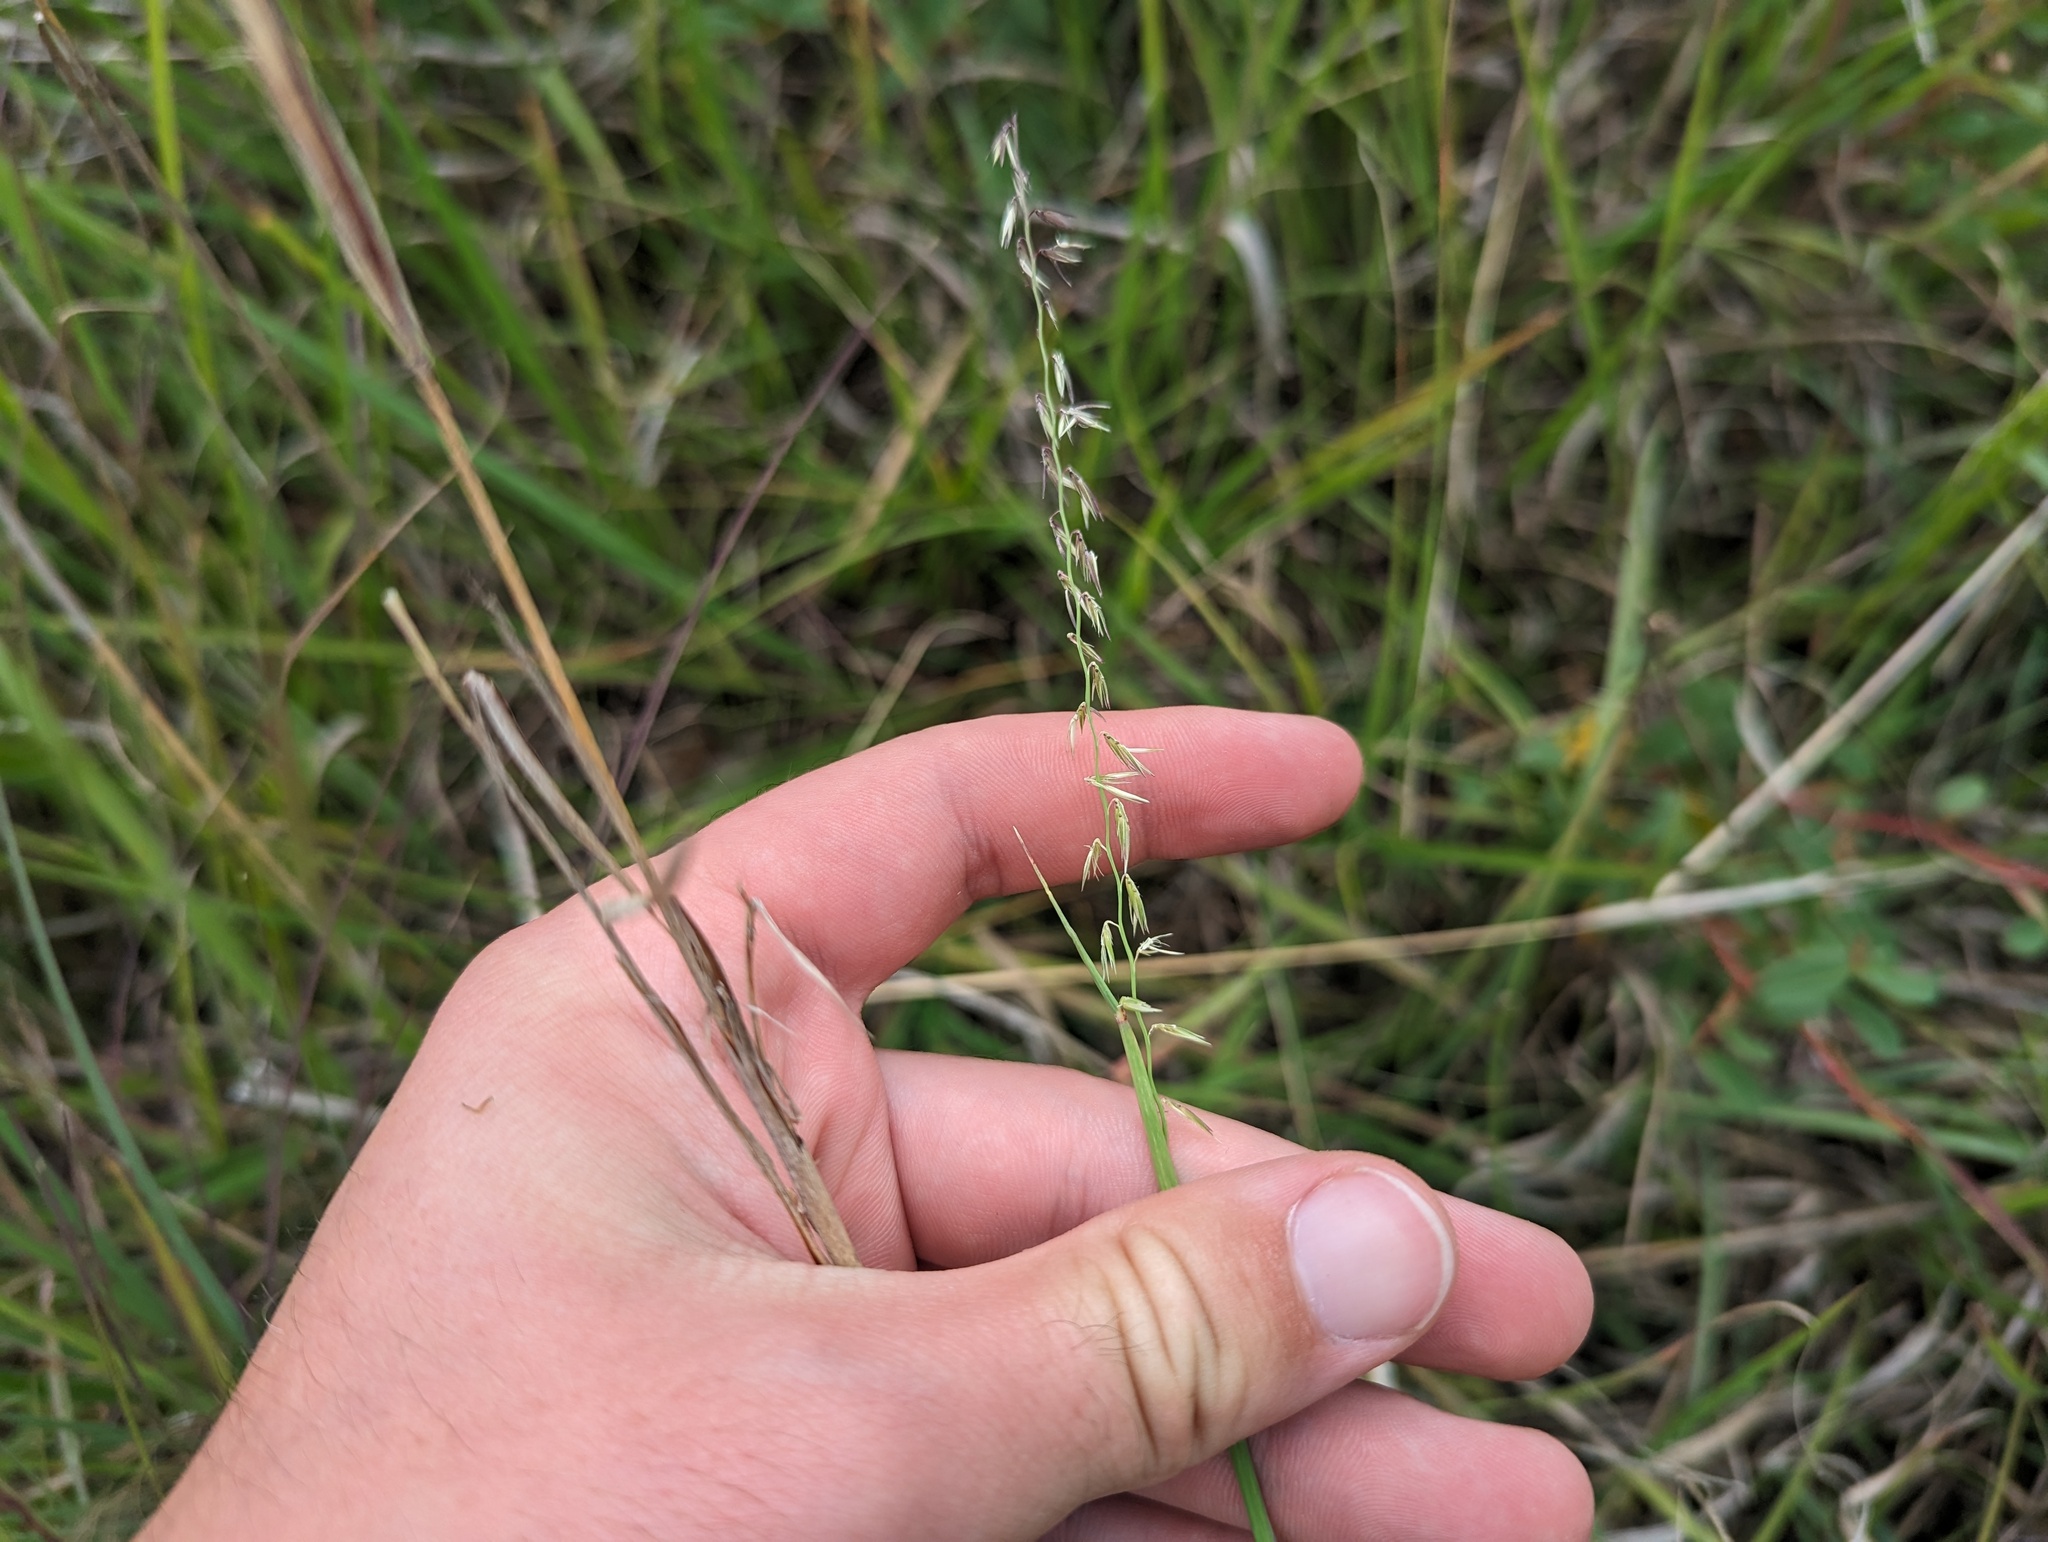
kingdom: Plantae
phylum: Tracheophyta
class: Liliopsida
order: Poales
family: Poaceae
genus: Bouteloua
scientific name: Bouteloua curtipendula
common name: Side-oats grama
